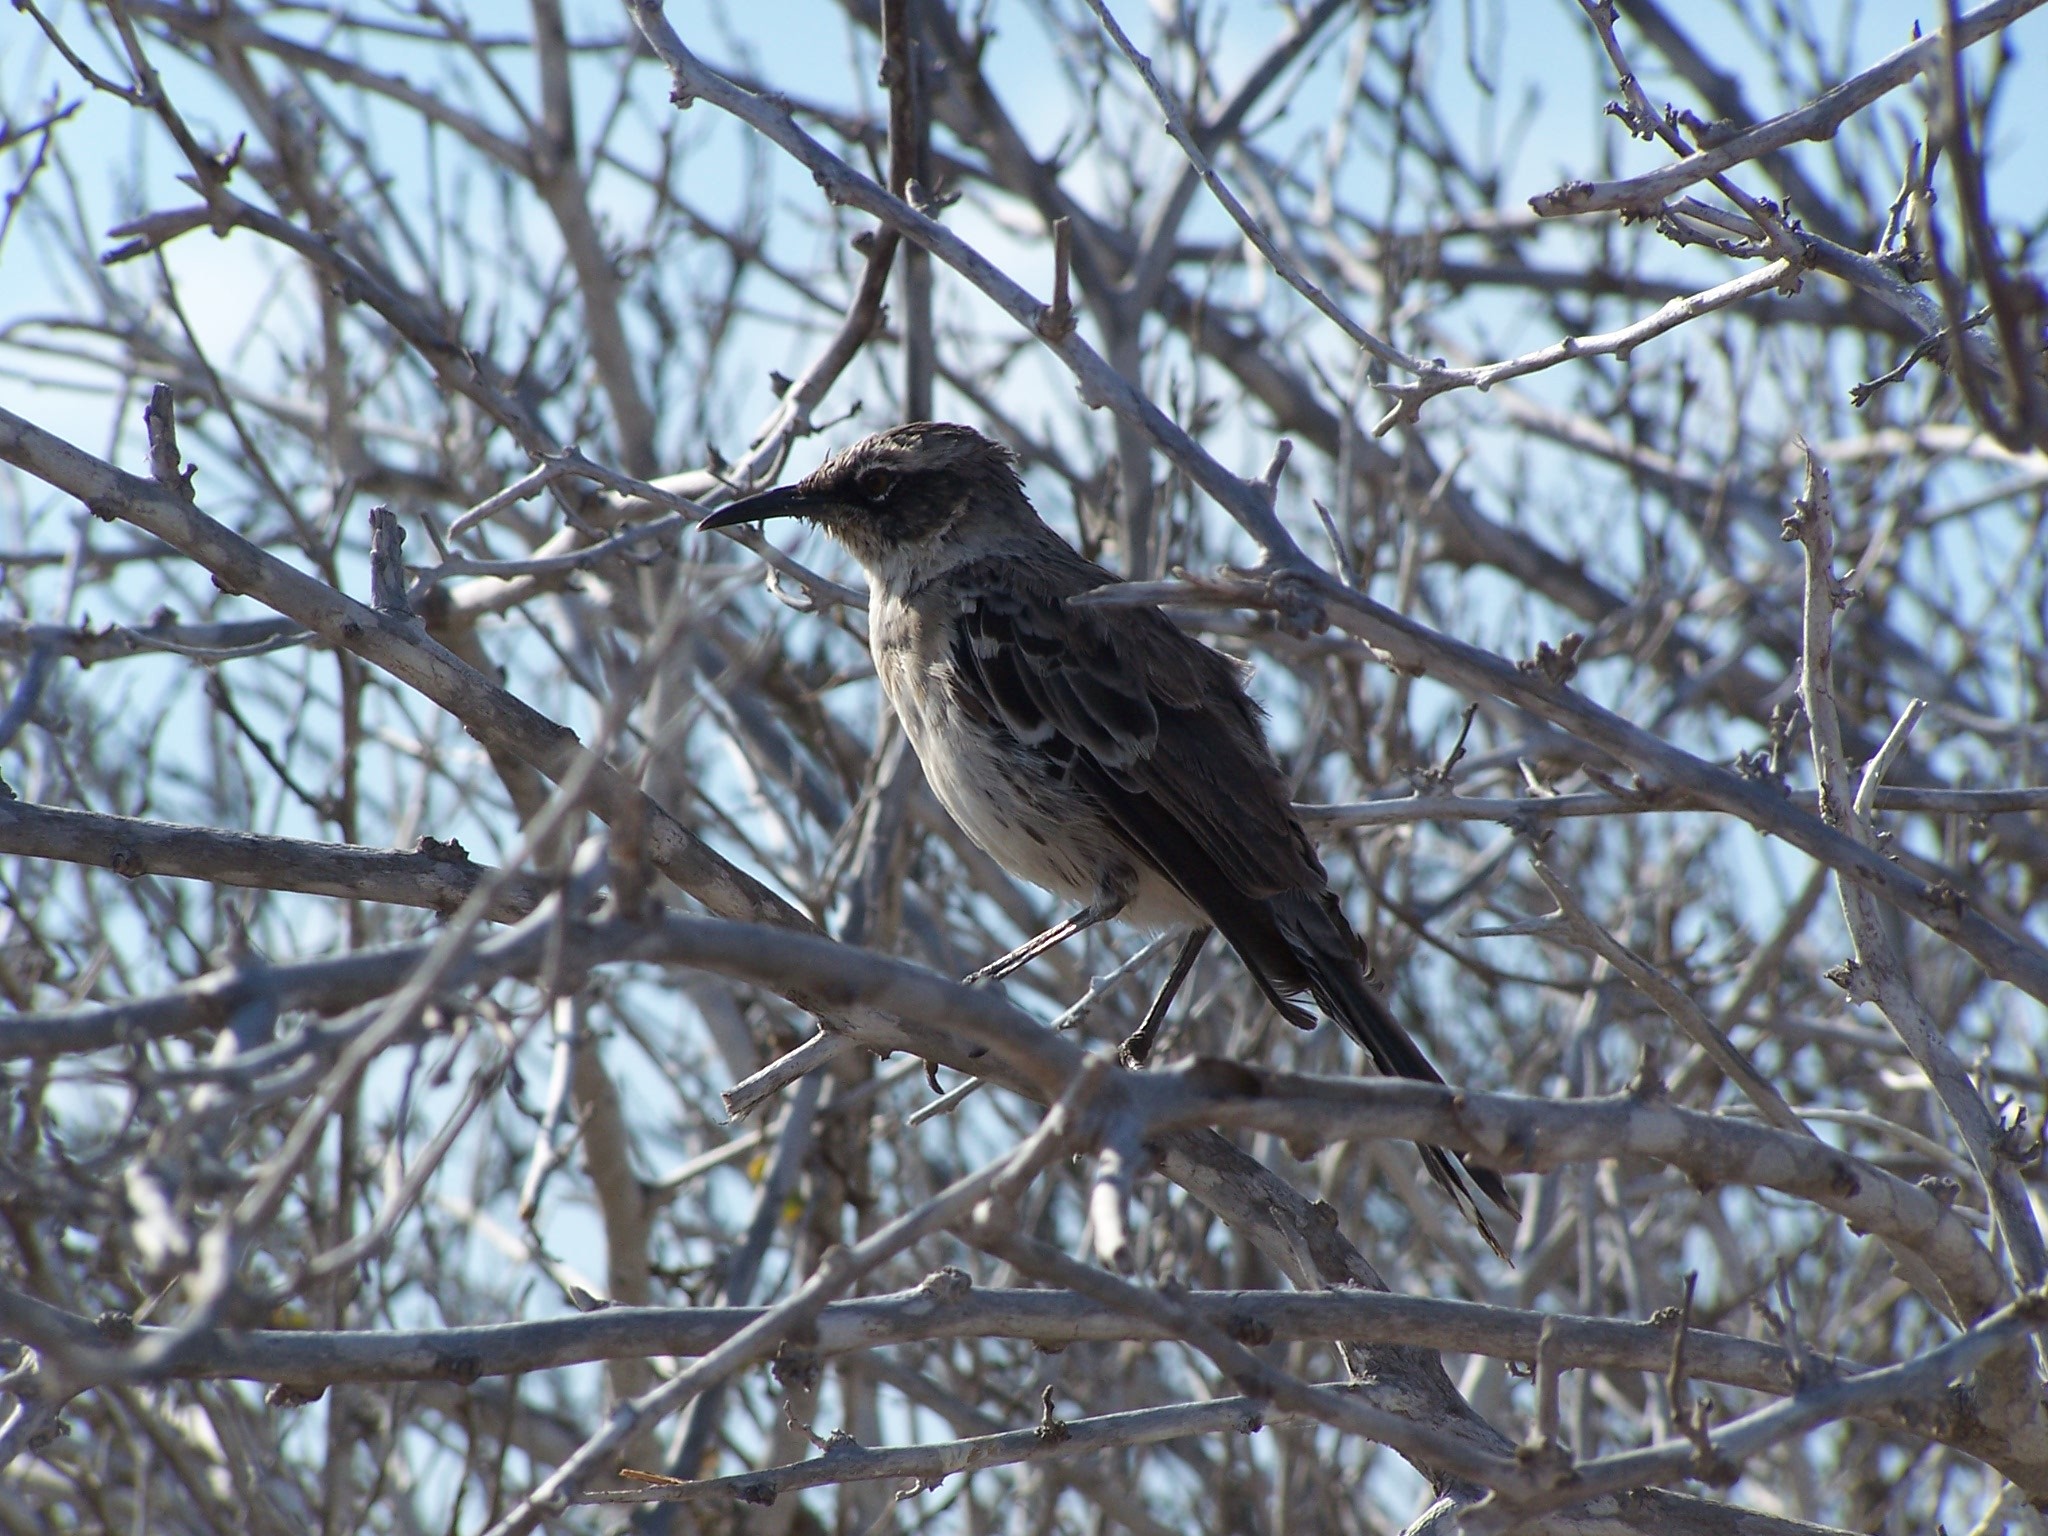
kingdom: Animalia
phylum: Chordata
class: Aves
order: Passeriformes
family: Mimidae
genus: Mimus
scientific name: Mimus parvulus
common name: Galapagos mockingbird
